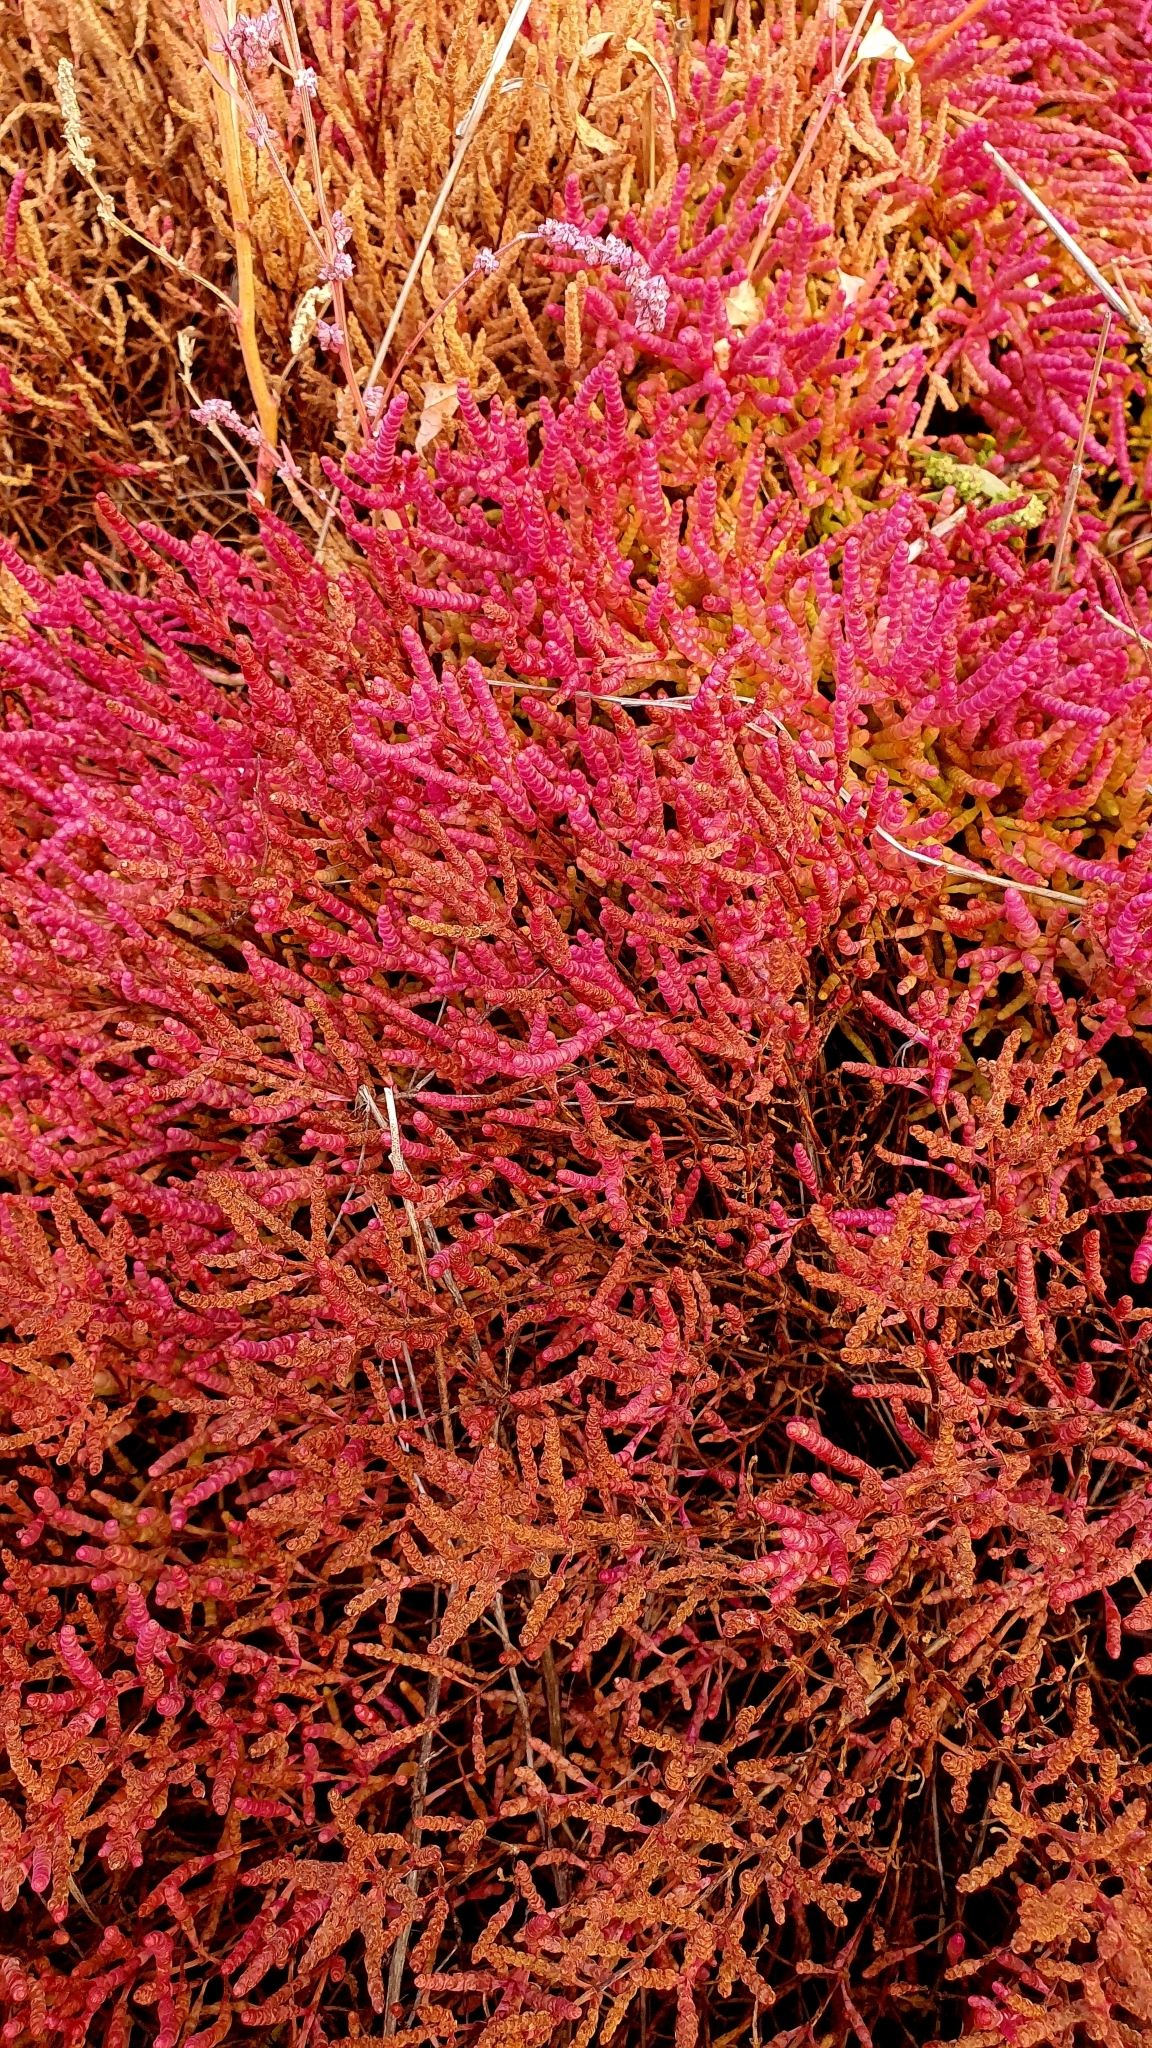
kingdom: Plantae
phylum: Tracheophyta
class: Magnoliopsida
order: Caryophyllales
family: Amaranthaceae
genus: Salicornia
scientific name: Salicornia perennans
